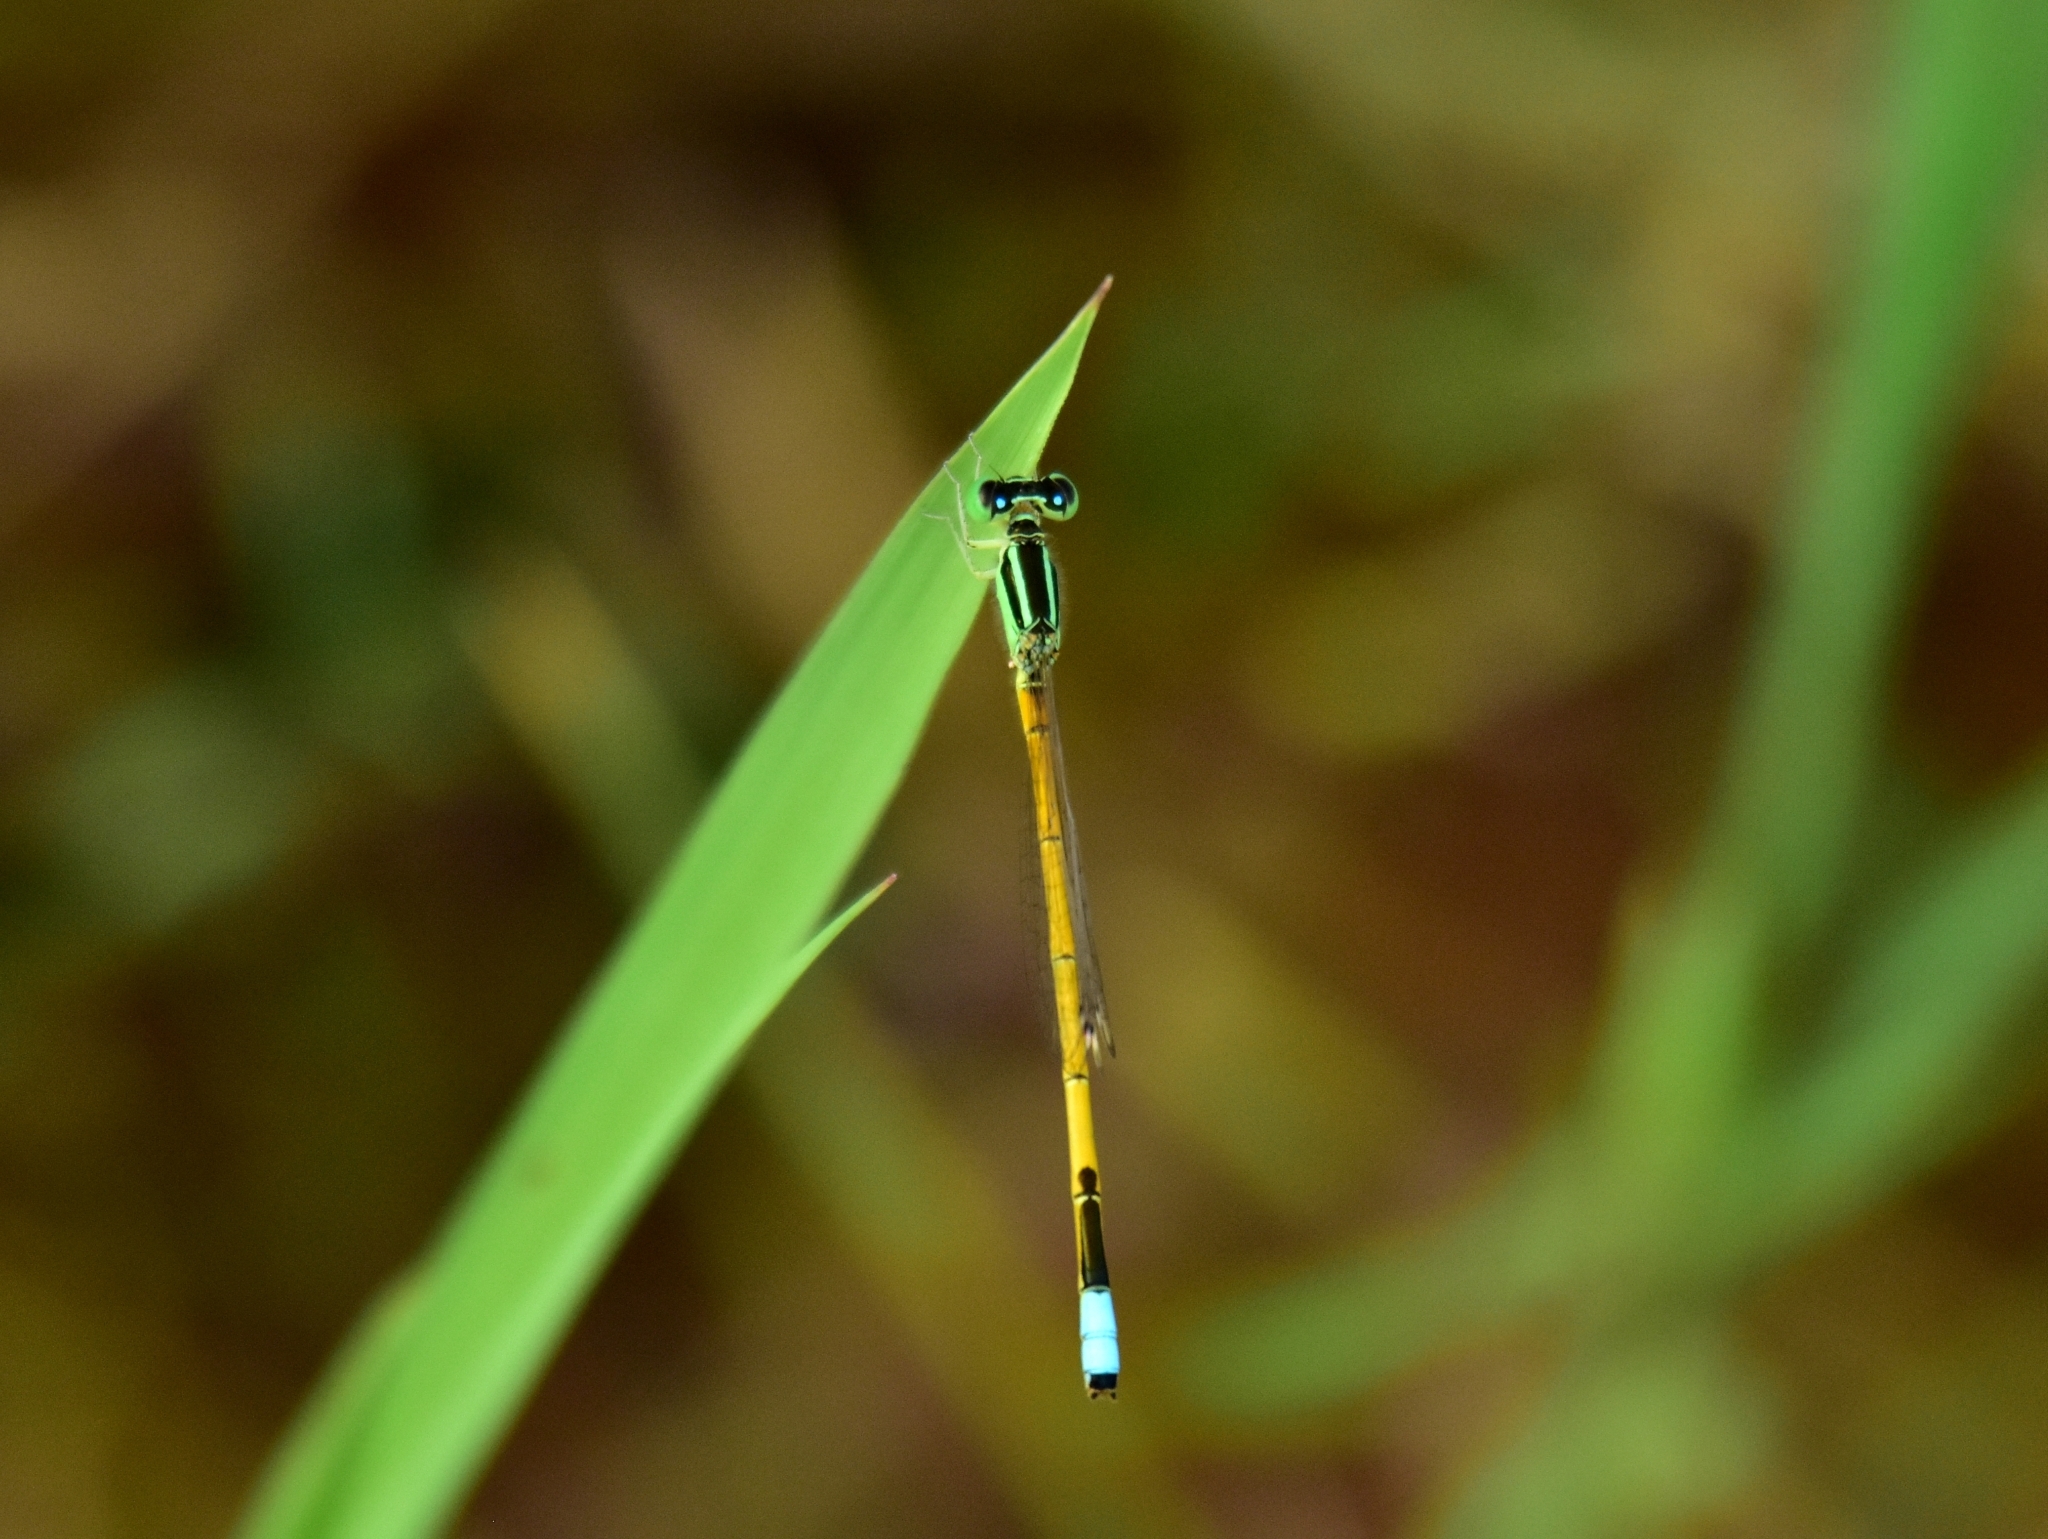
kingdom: Animalia
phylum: Arthropoda
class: Insecta
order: Odonata
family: Coenagrionidae
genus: Ischnura
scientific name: Ischnura rubilio
